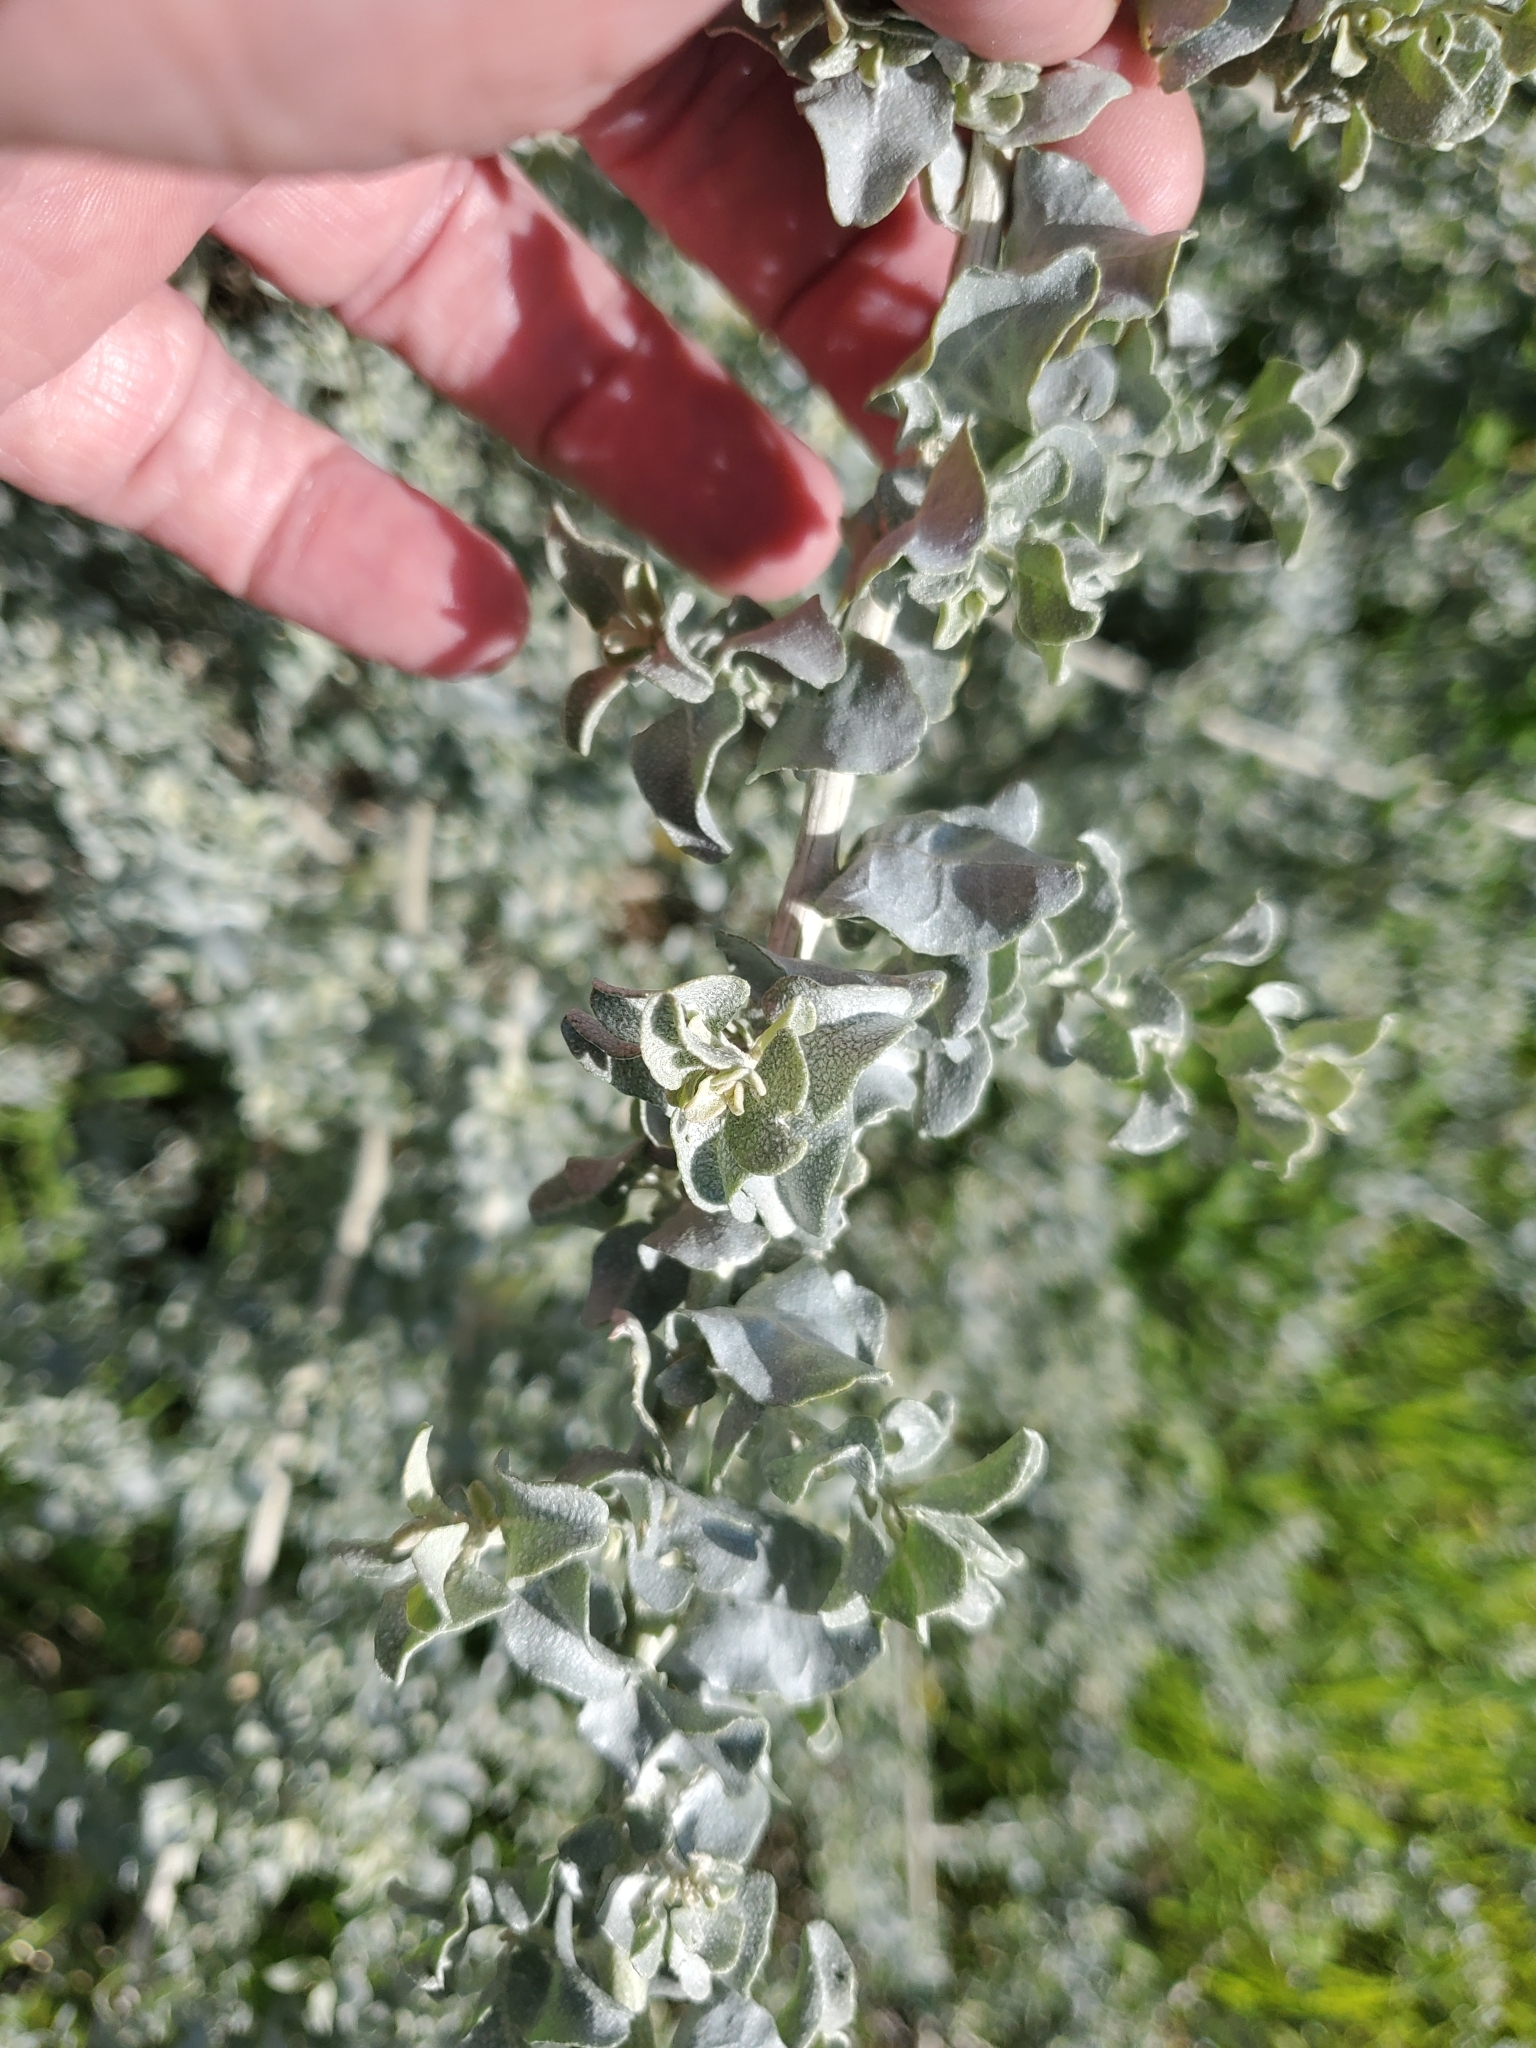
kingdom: Plantae
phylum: Tracheophyta
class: Magnoliopsida
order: Caryophyllales
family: Amaranthaceae
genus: Atriplex
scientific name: Atriplex lentiformis
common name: Big saltbush
